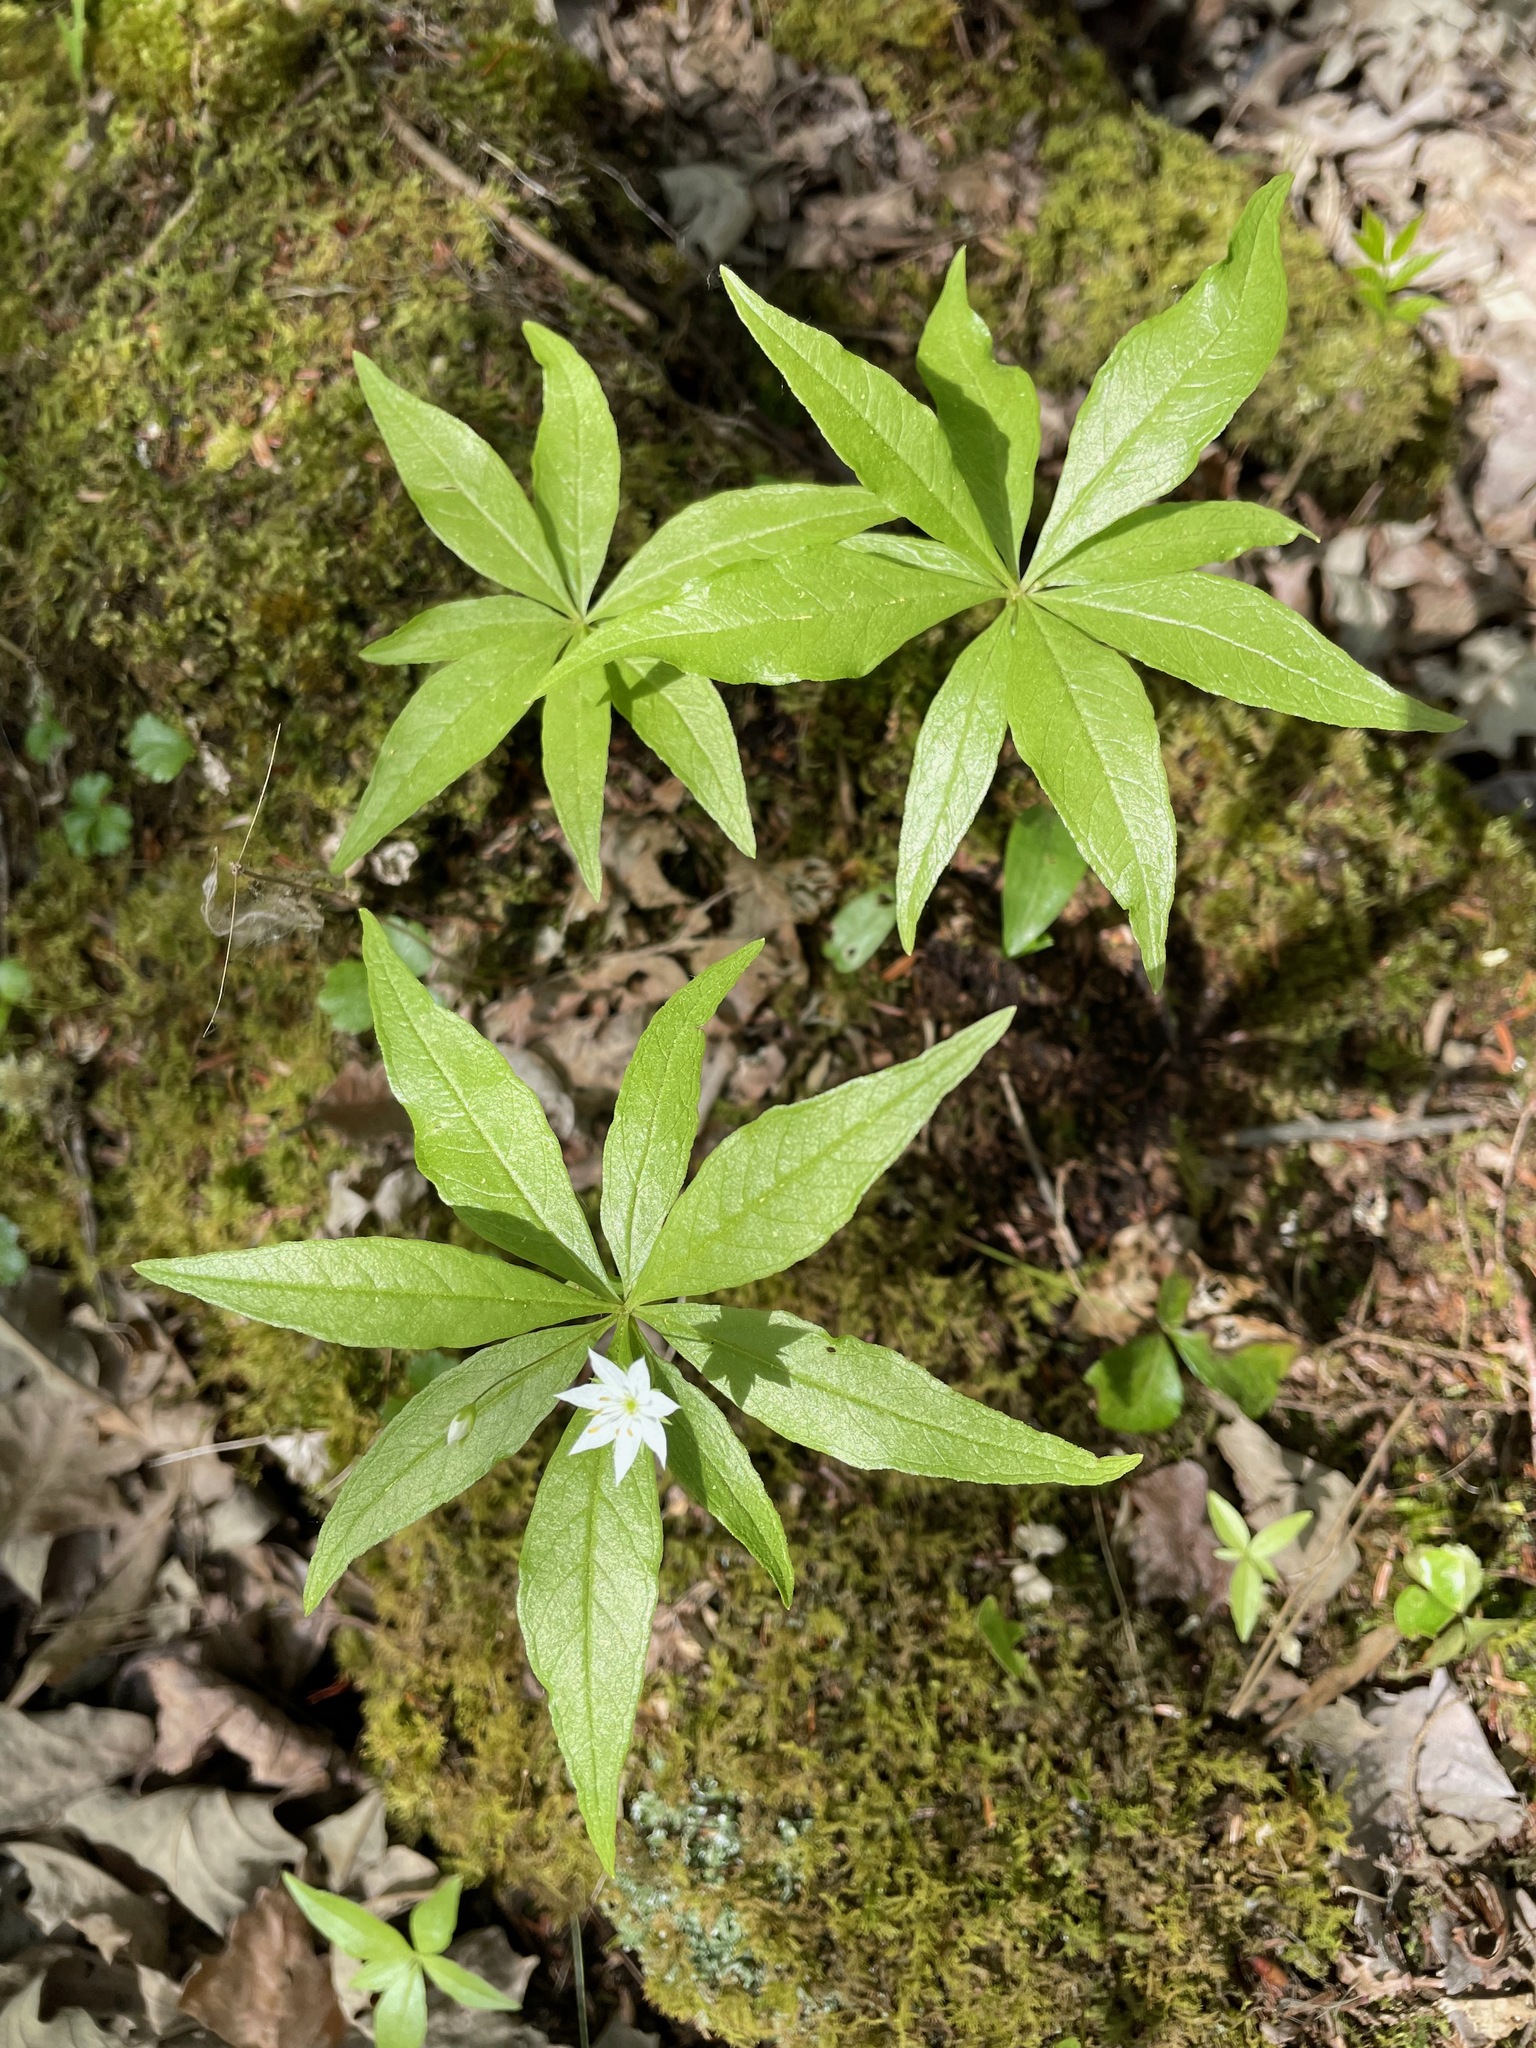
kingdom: Plantae
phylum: Tracheophyta
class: Magnoliopsida
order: Ericales
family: Primulaceae
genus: Lysimachia
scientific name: Lysimachia borealis
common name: American starflower
